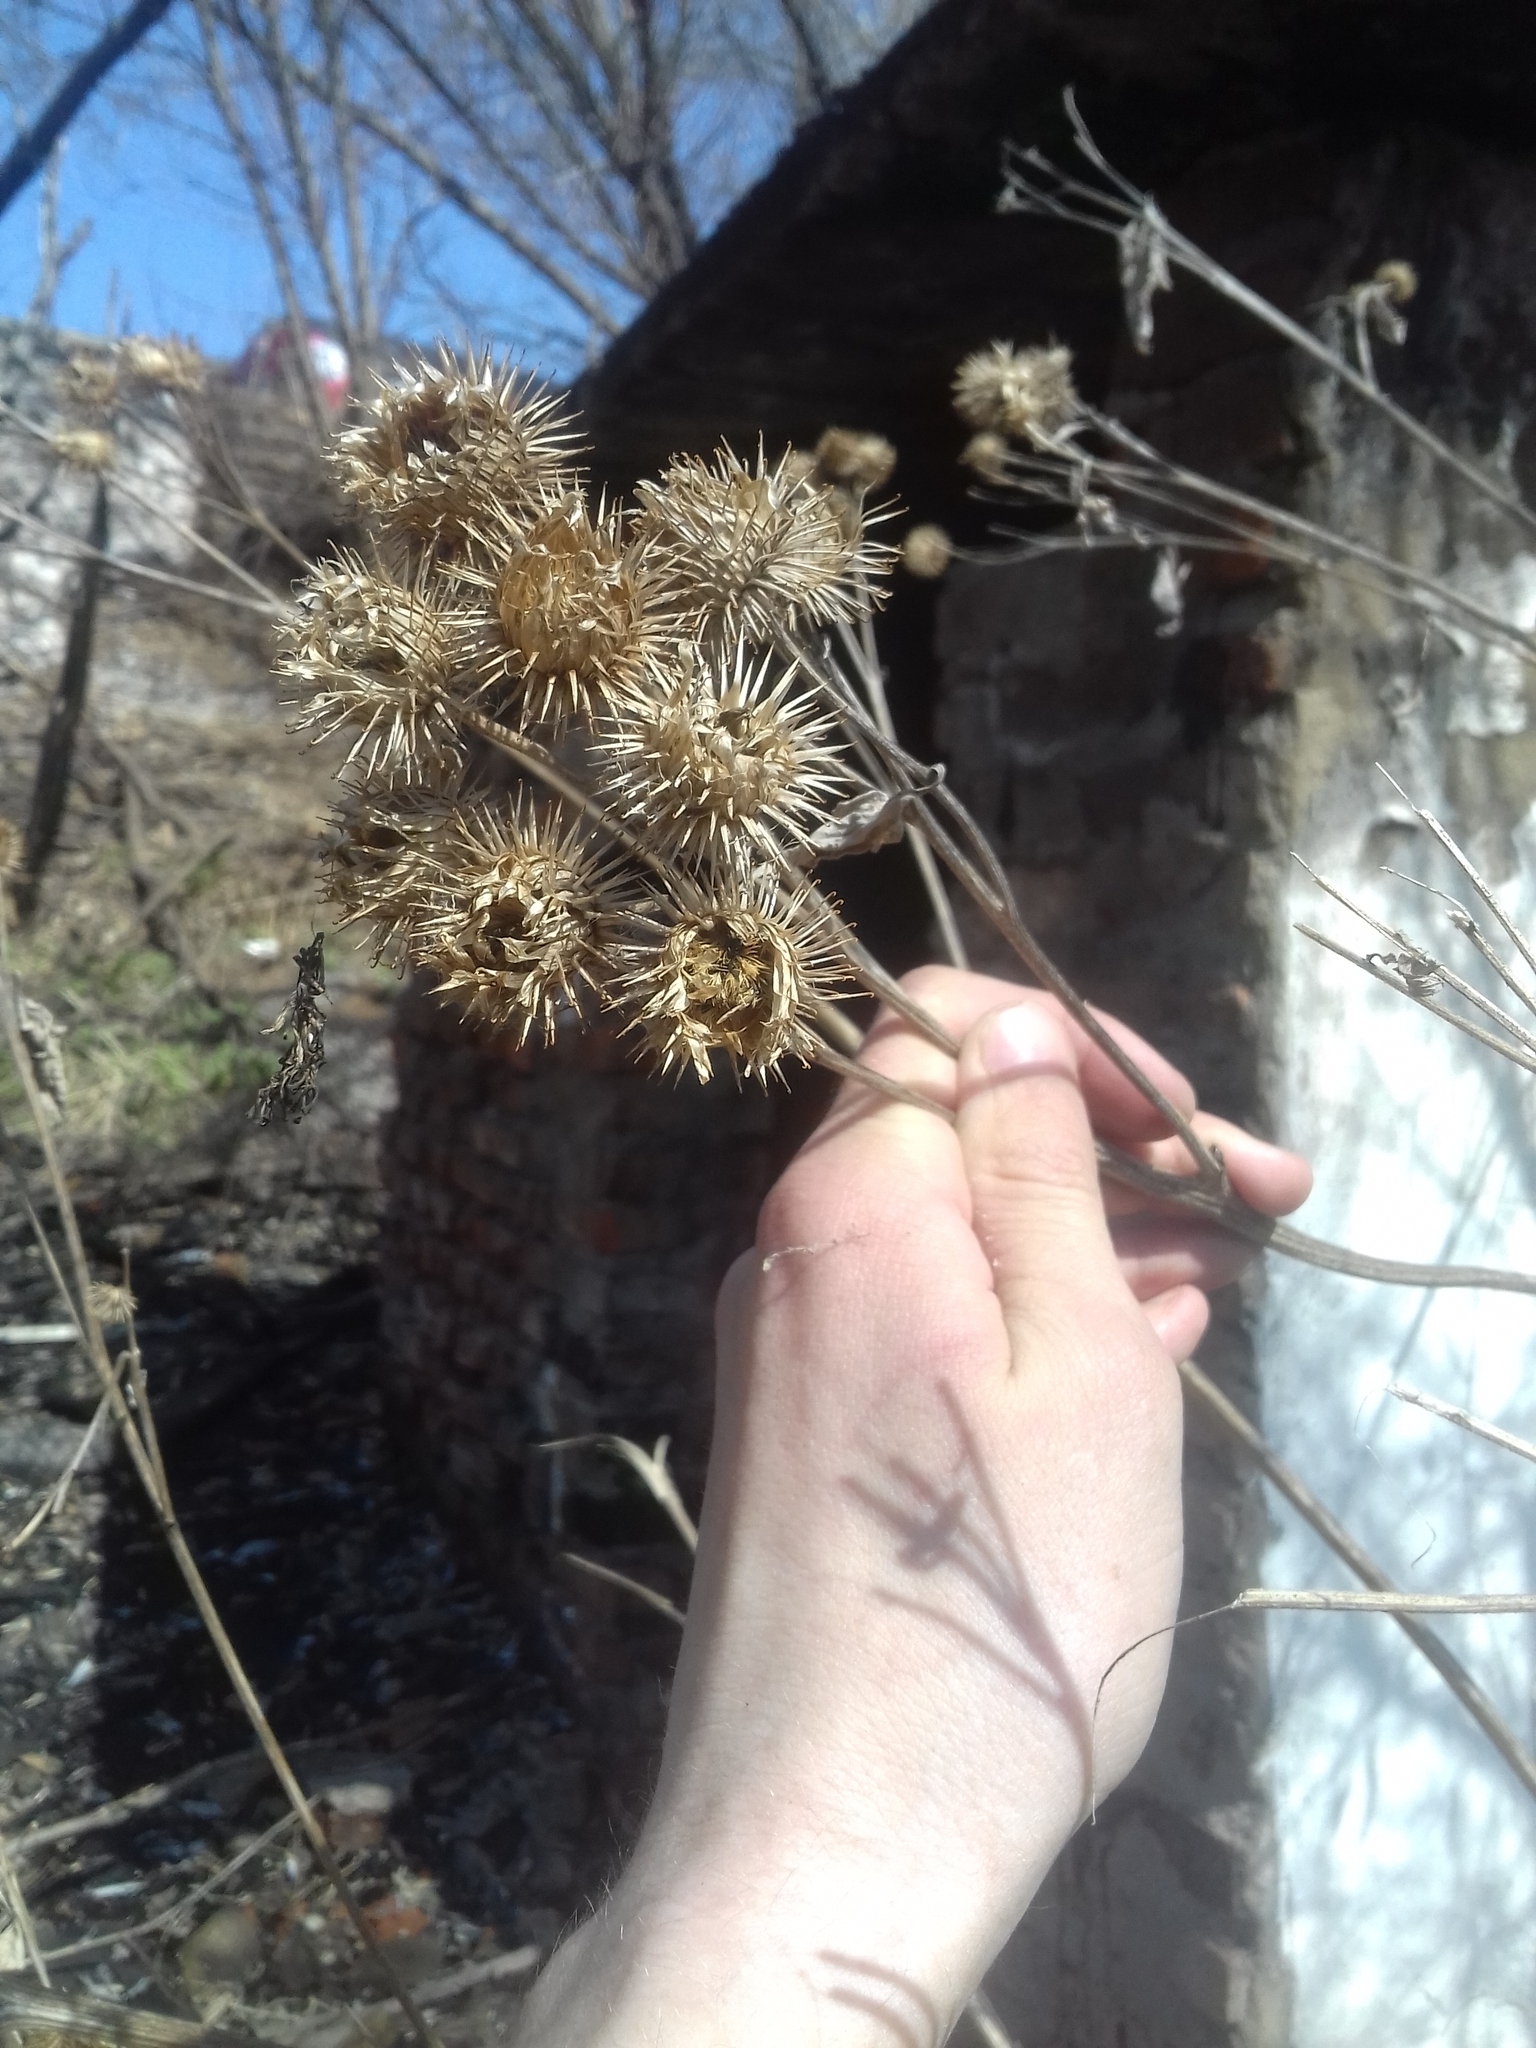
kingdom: Plantae
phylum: Tracheophyta
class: Magnoliopsida
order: Asterales
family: Asteraceae
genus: Arctium
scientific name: Arctium tomentosum
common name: Woolly burdock
